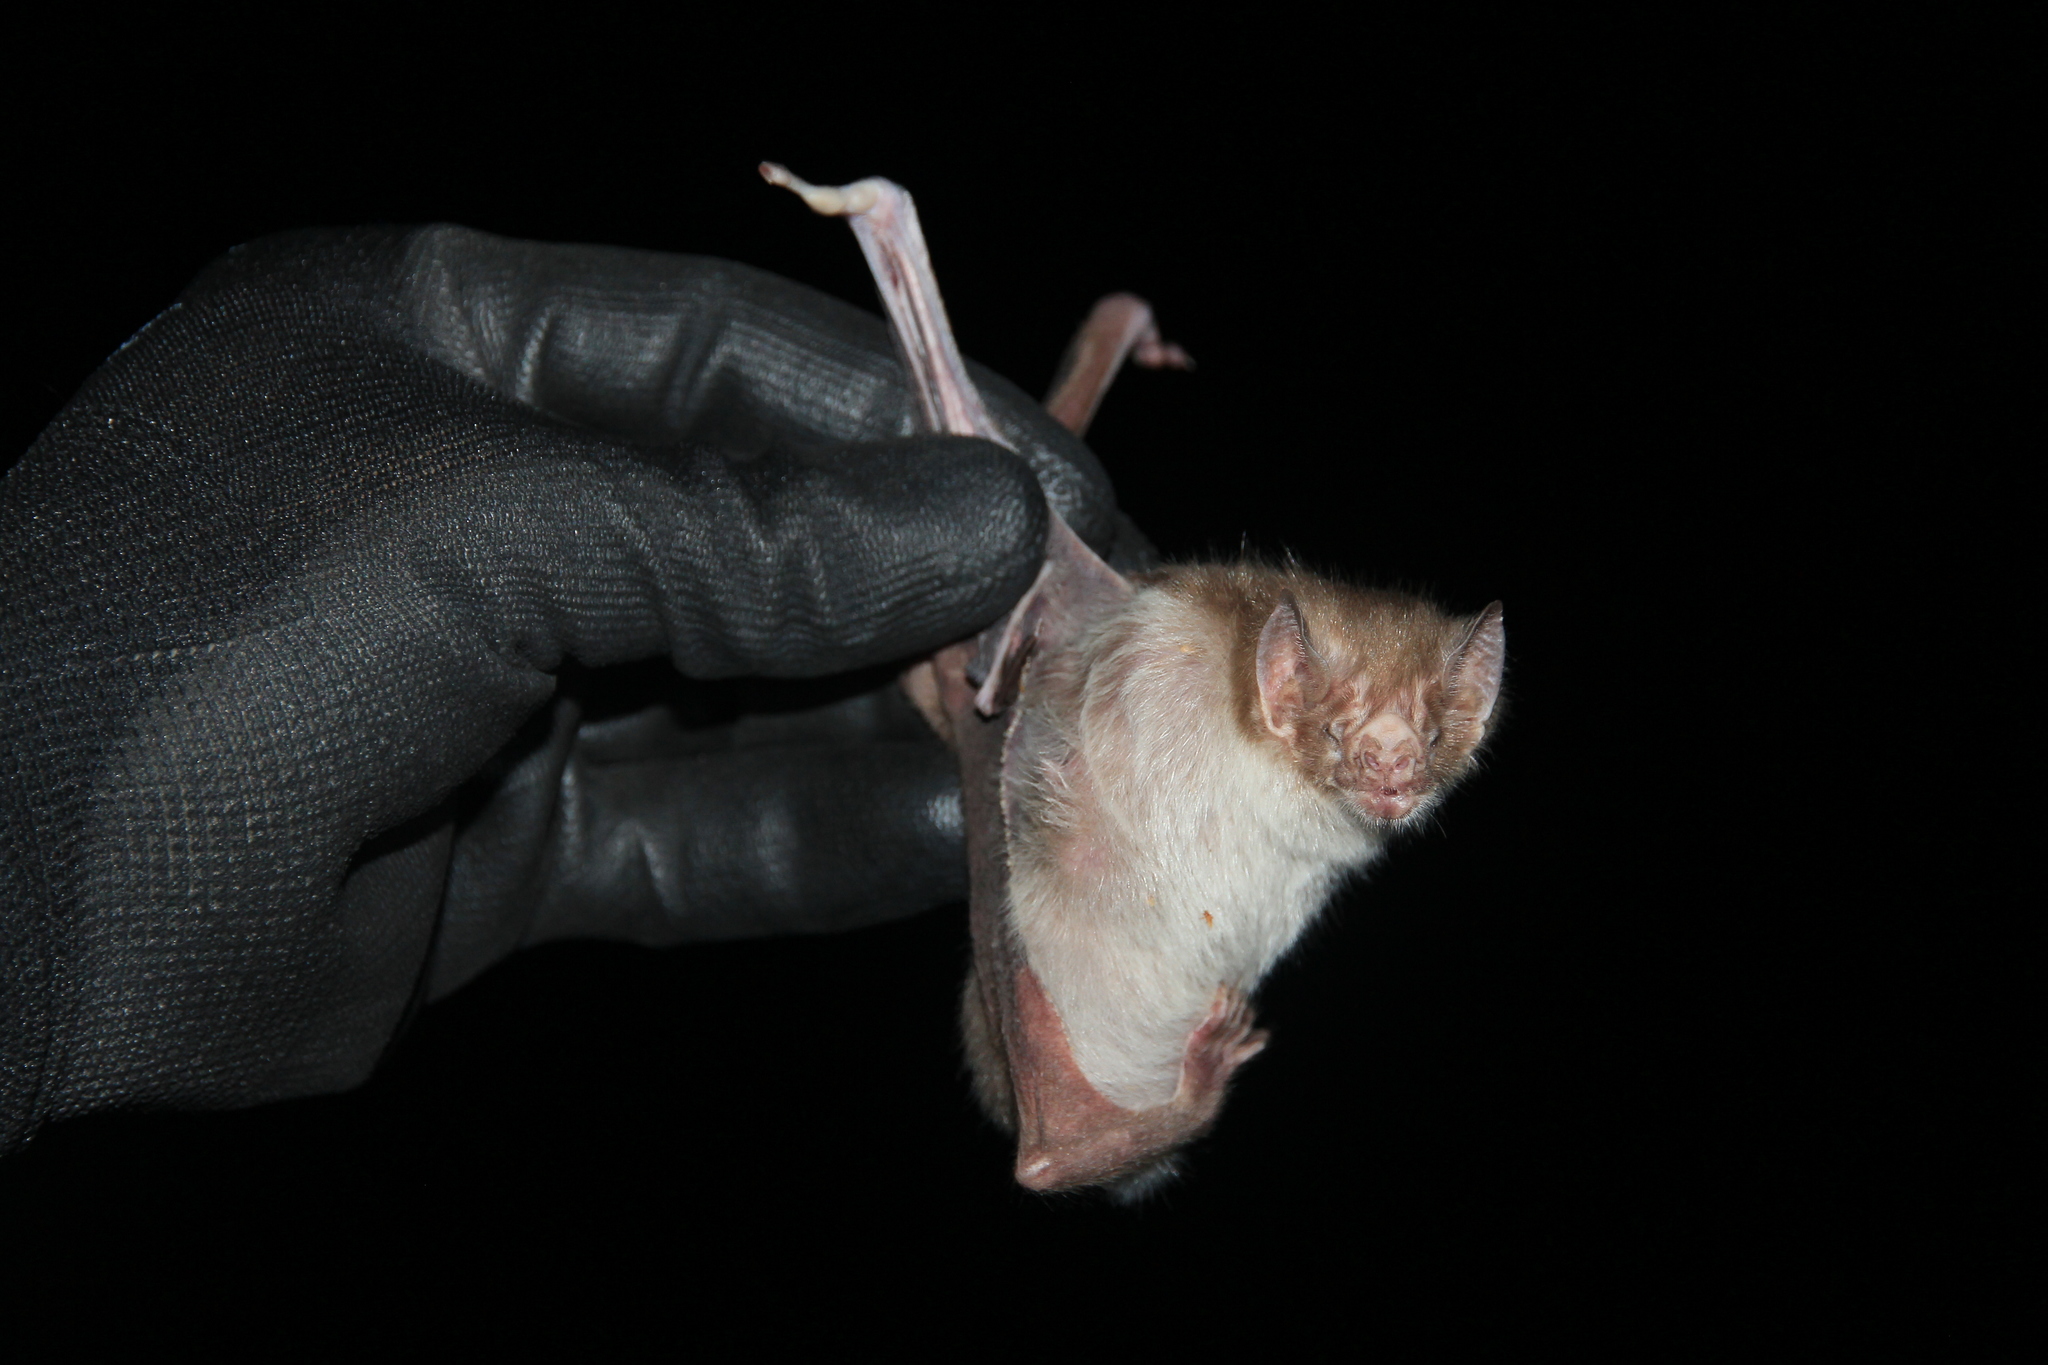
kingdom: Animalia
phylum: Chordata
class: Mammalia
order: Chiroptera
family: Phyllostomidae
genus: Desmodus
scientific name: Desmodus rotundus
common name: Common vampire bat
